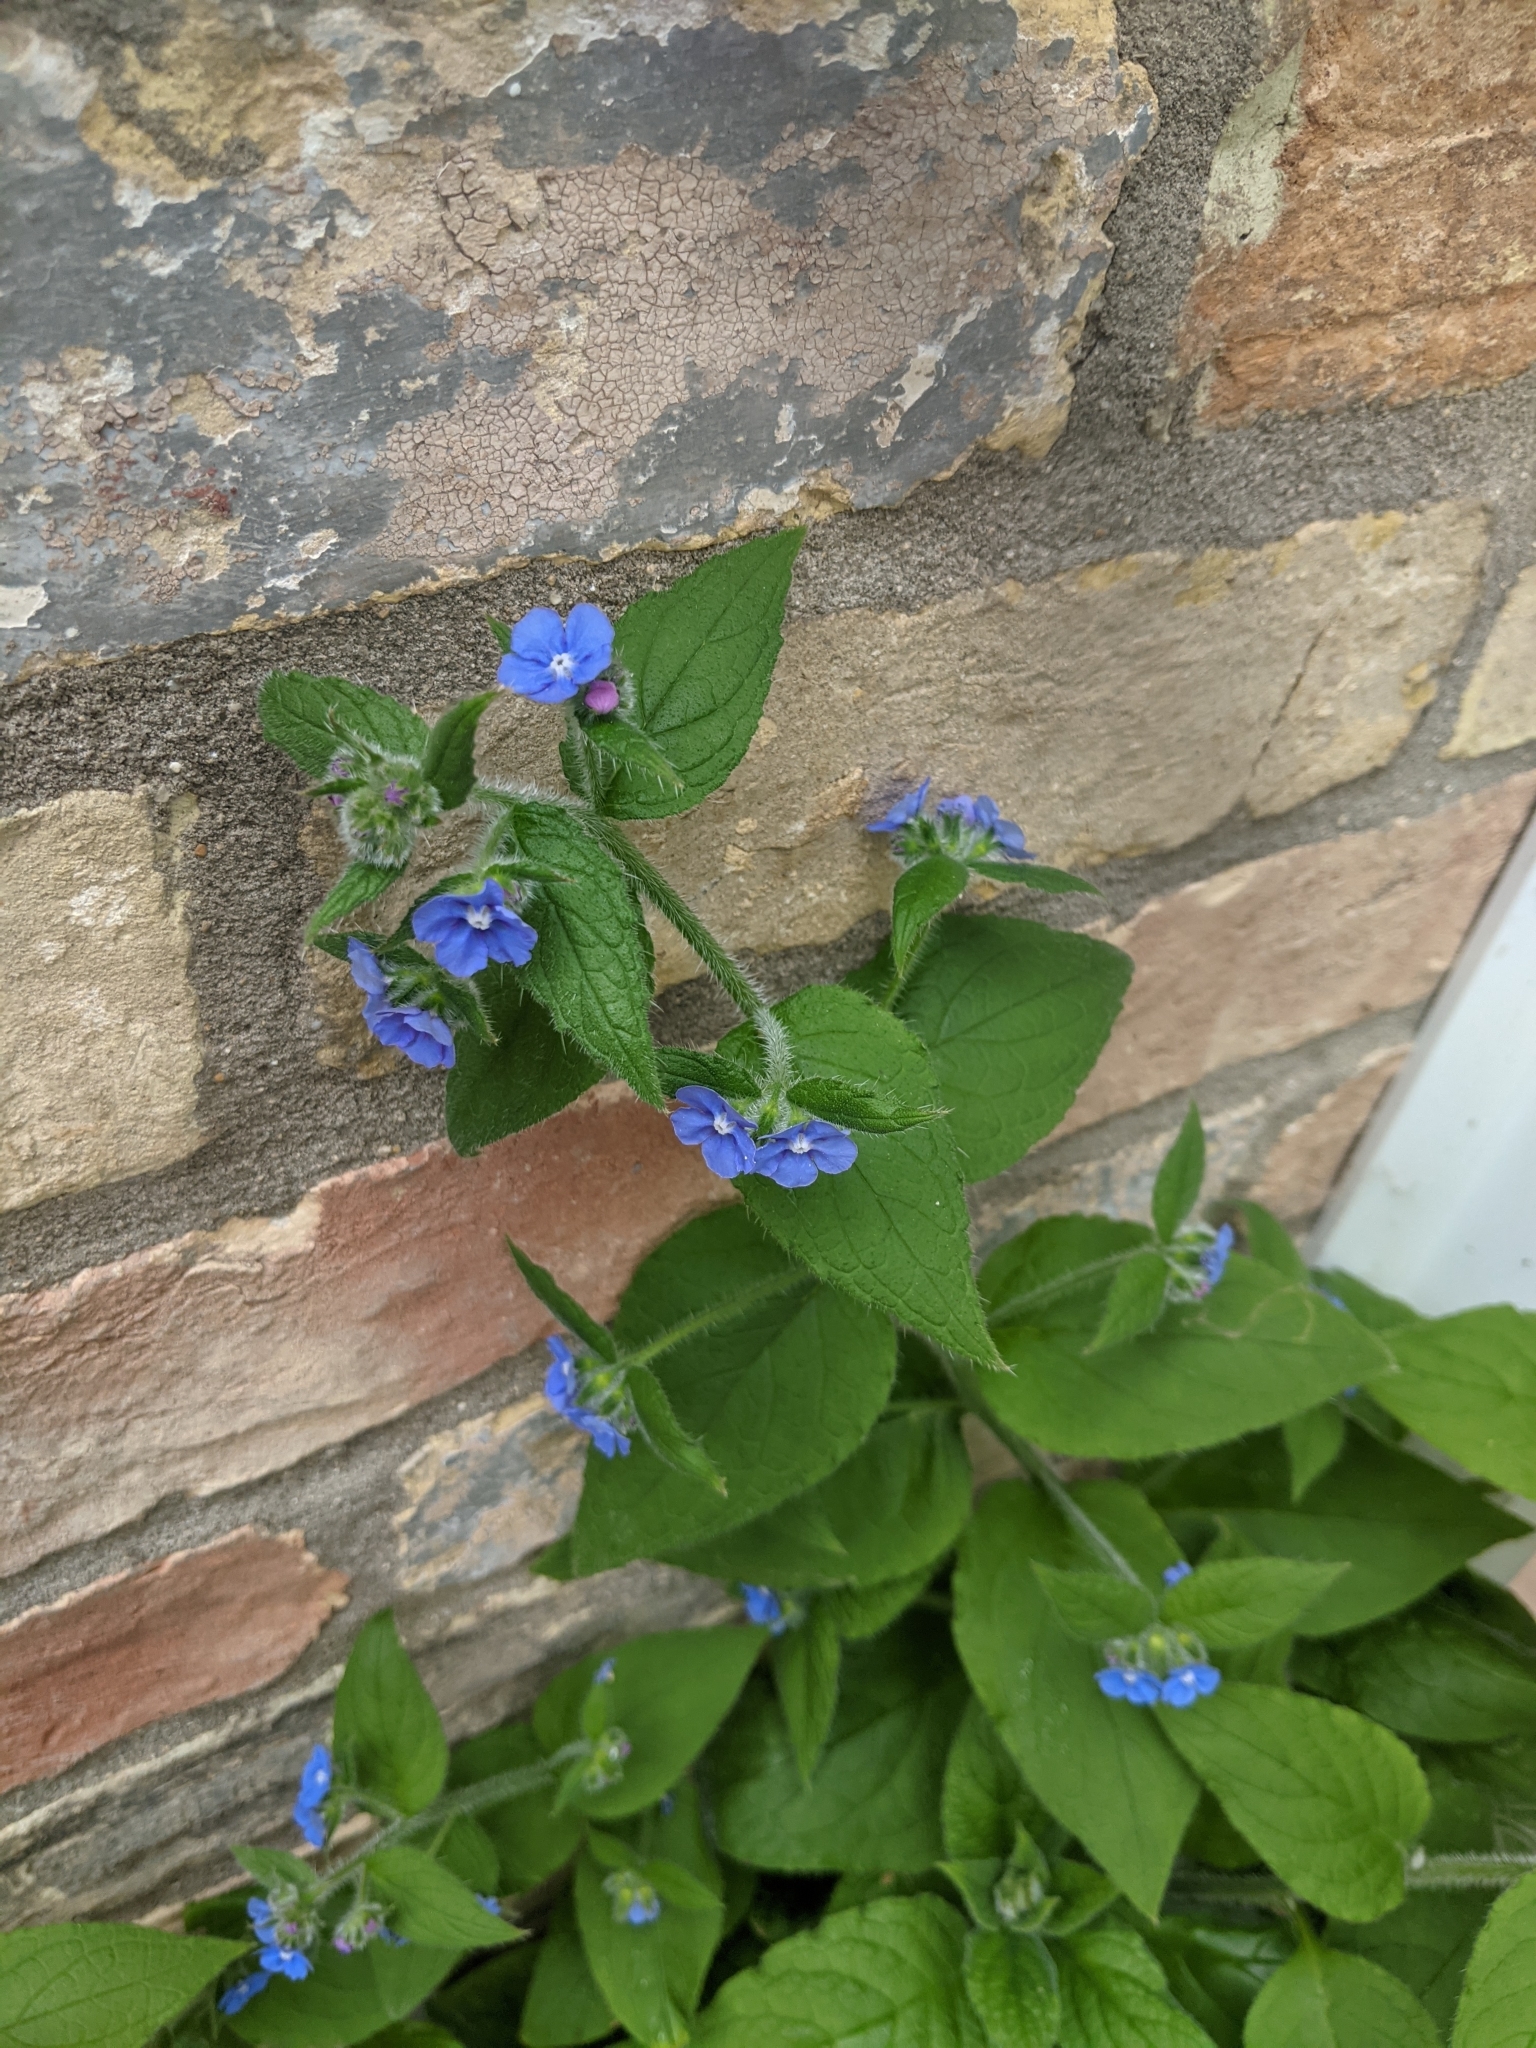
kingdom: Plantae
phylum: Tracheophyta
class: Magnoliopsida
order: Boraginales
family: Boraginaceae
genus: Pentaglottis
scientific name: Pentaglottis sempervirens
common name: Green alkanet
